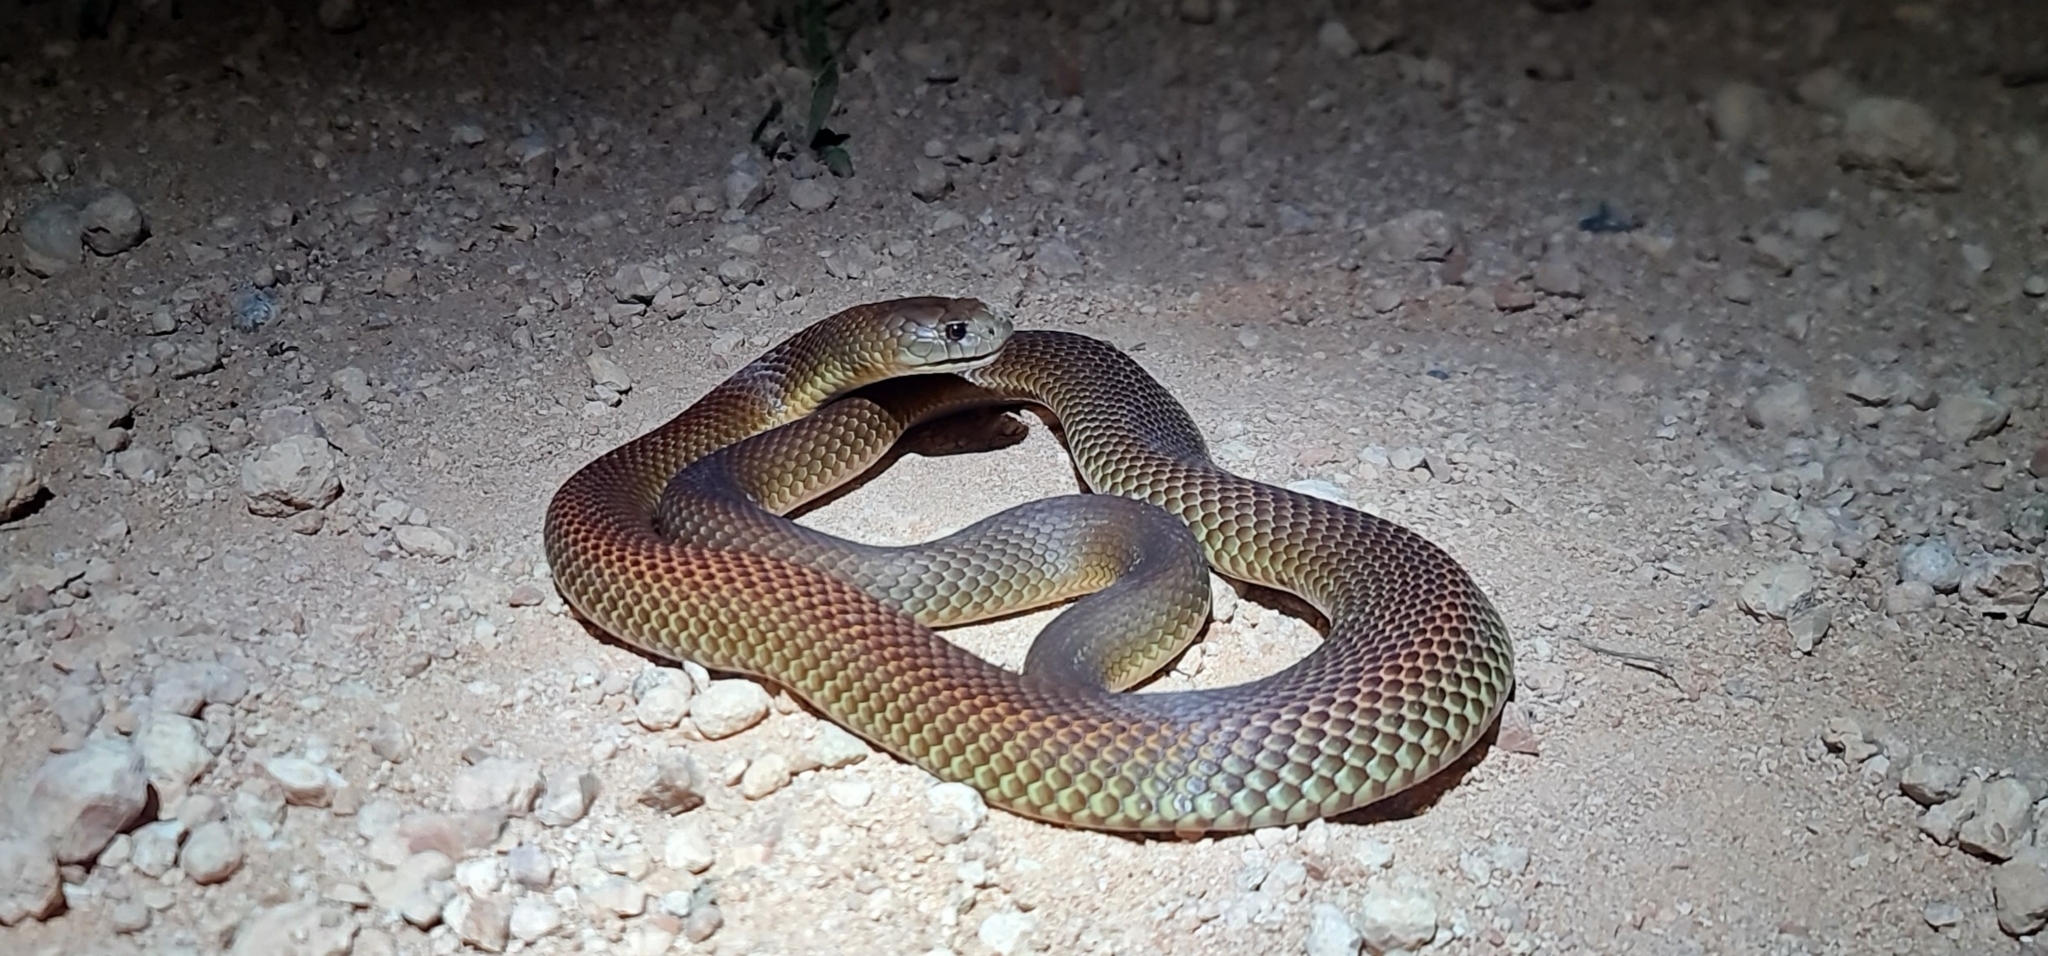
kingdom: Animalia
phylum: Chordata
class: Squamata
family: Elapidae
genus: Pseudechis
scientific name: Pseudechis australis
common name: King brown snake
